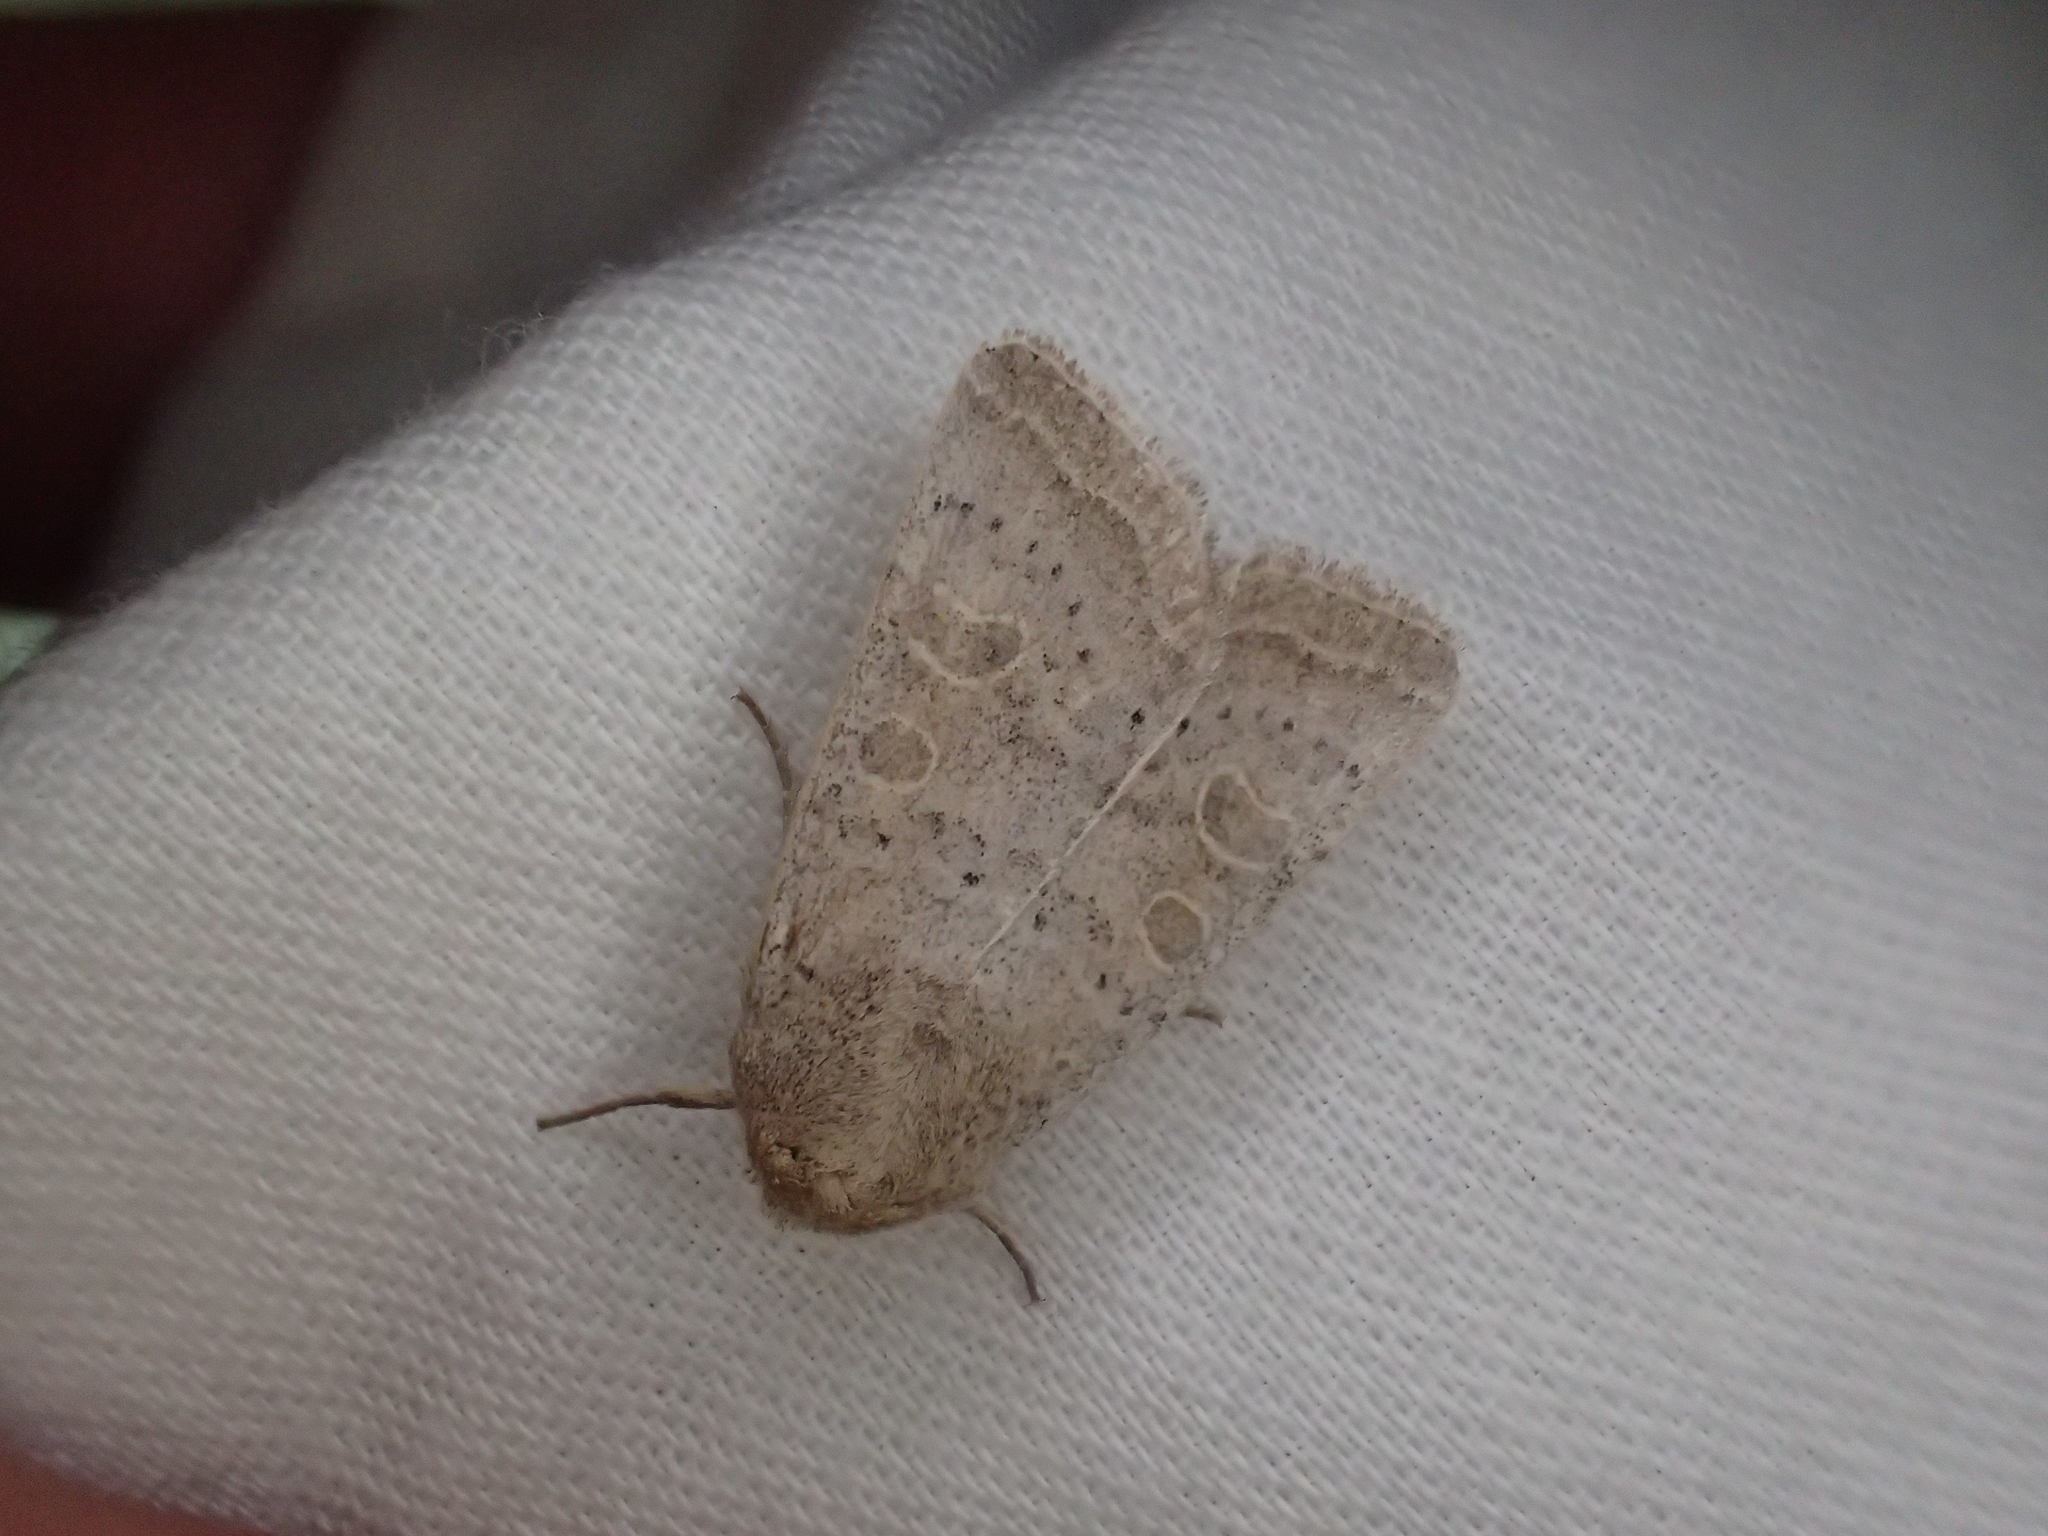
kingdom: Animalia
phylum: Arthropoda
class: Insecta
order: Lepidoptera
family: Noctuidae
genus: Hoplodrina
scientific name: Hoplodrina ambigua
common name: Vine's rustic
